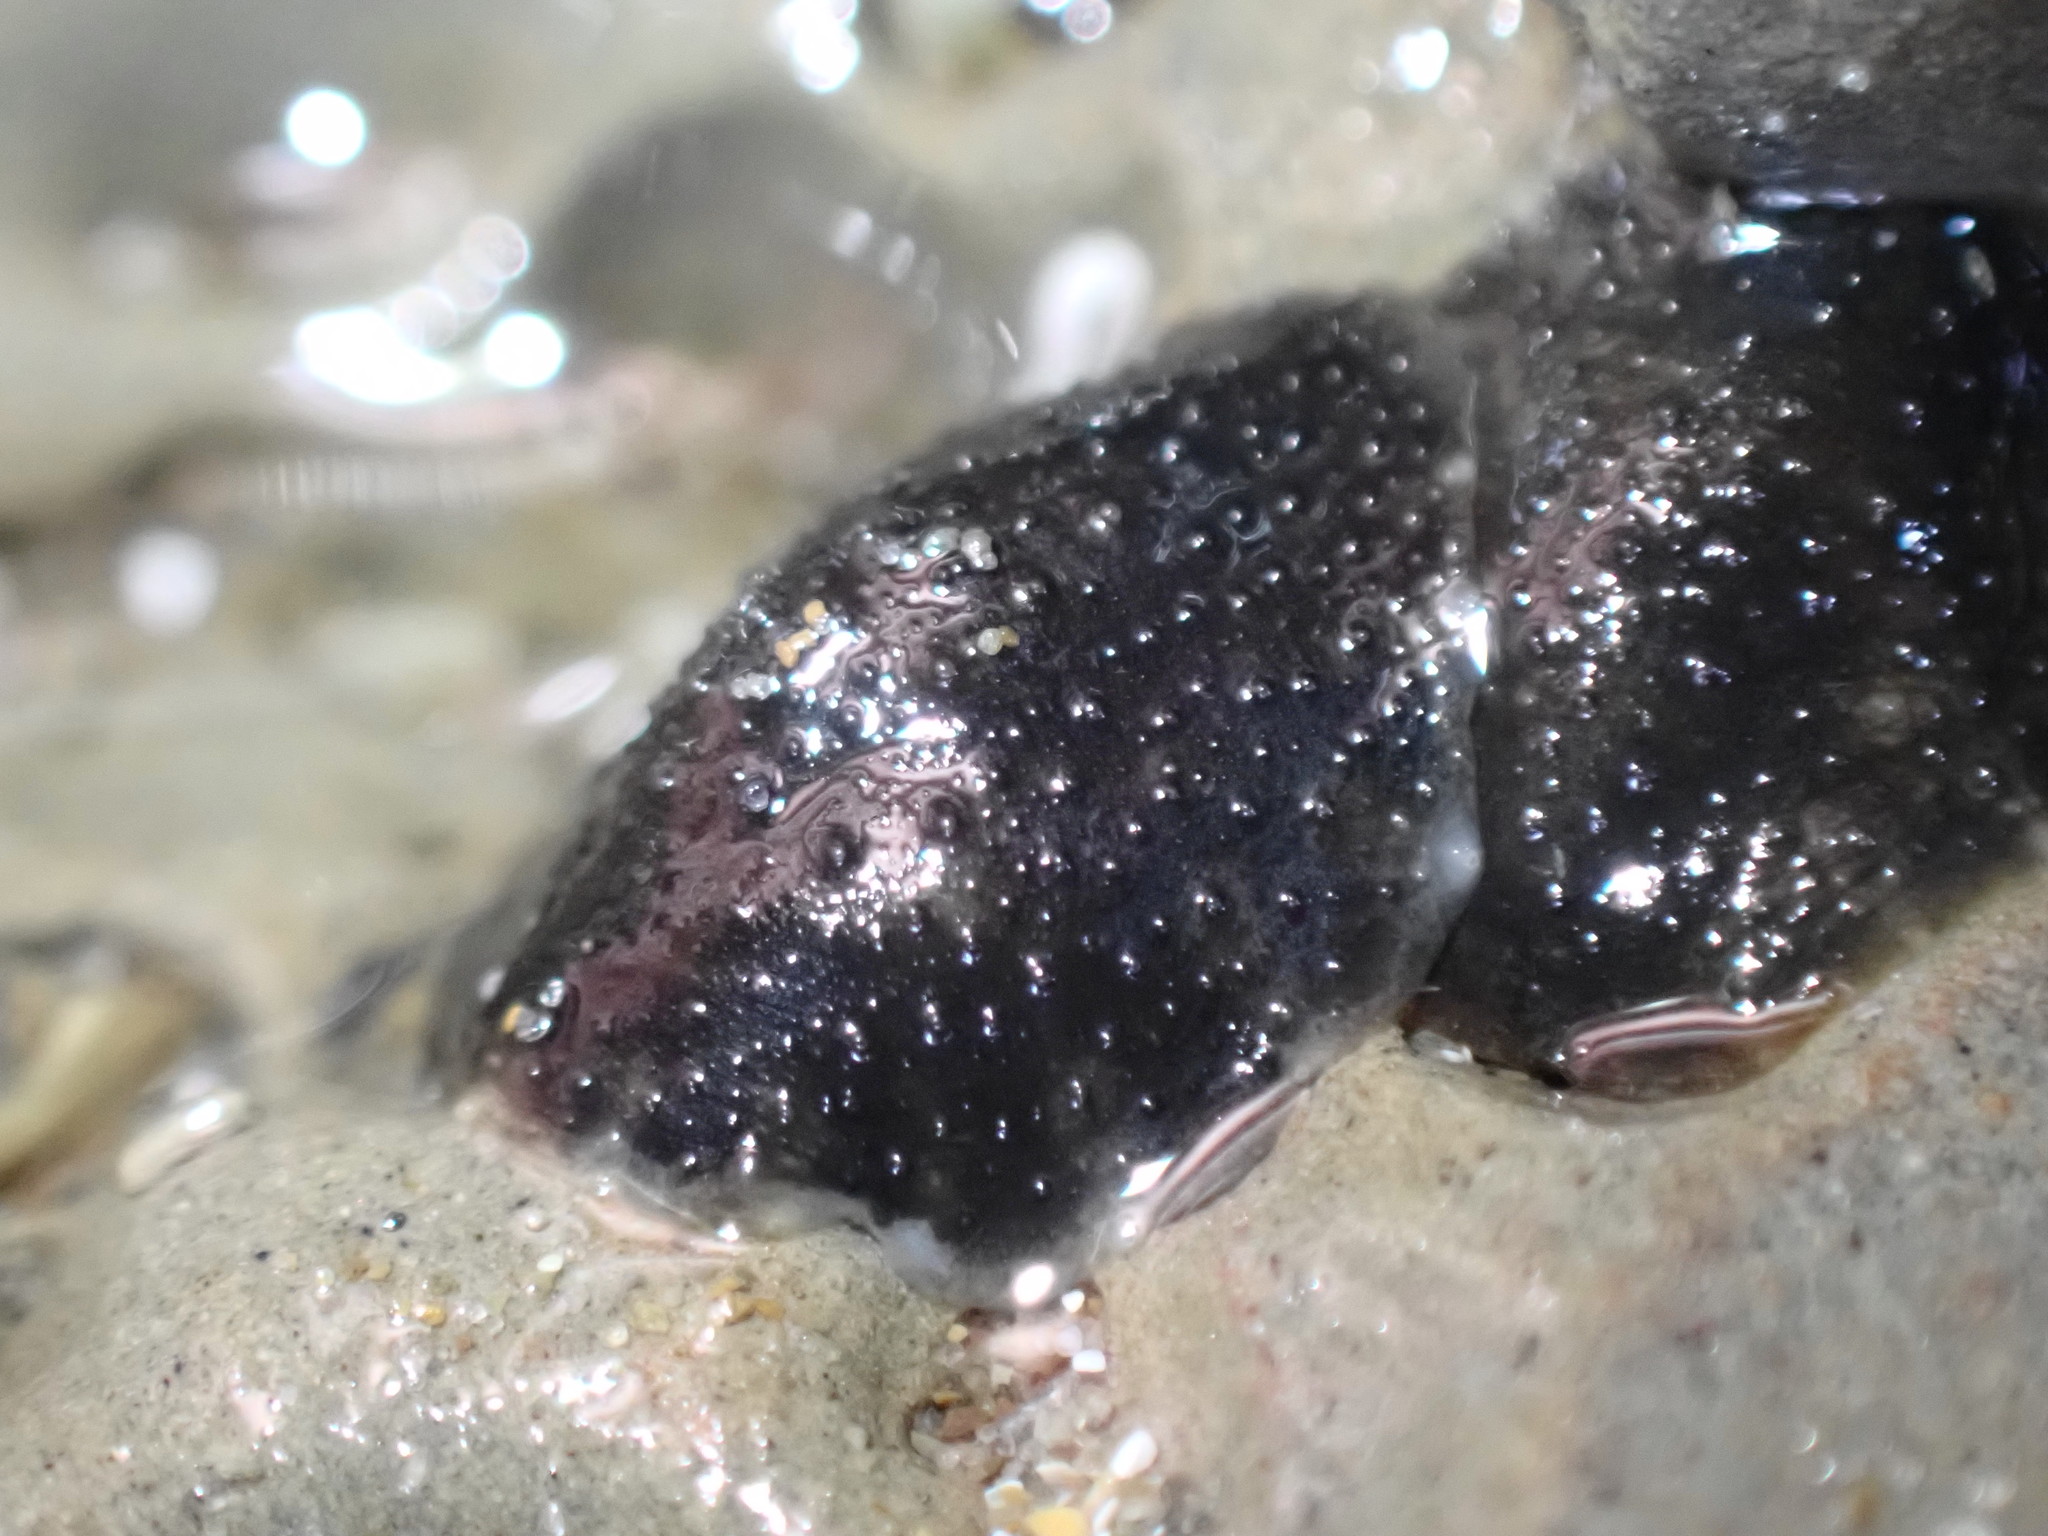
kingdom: Animalia
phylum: Mollusca
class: Gastropoda
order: Systellommatophora
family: Onchidiidae
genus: Onchidella
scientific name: Onchidella nigricans
